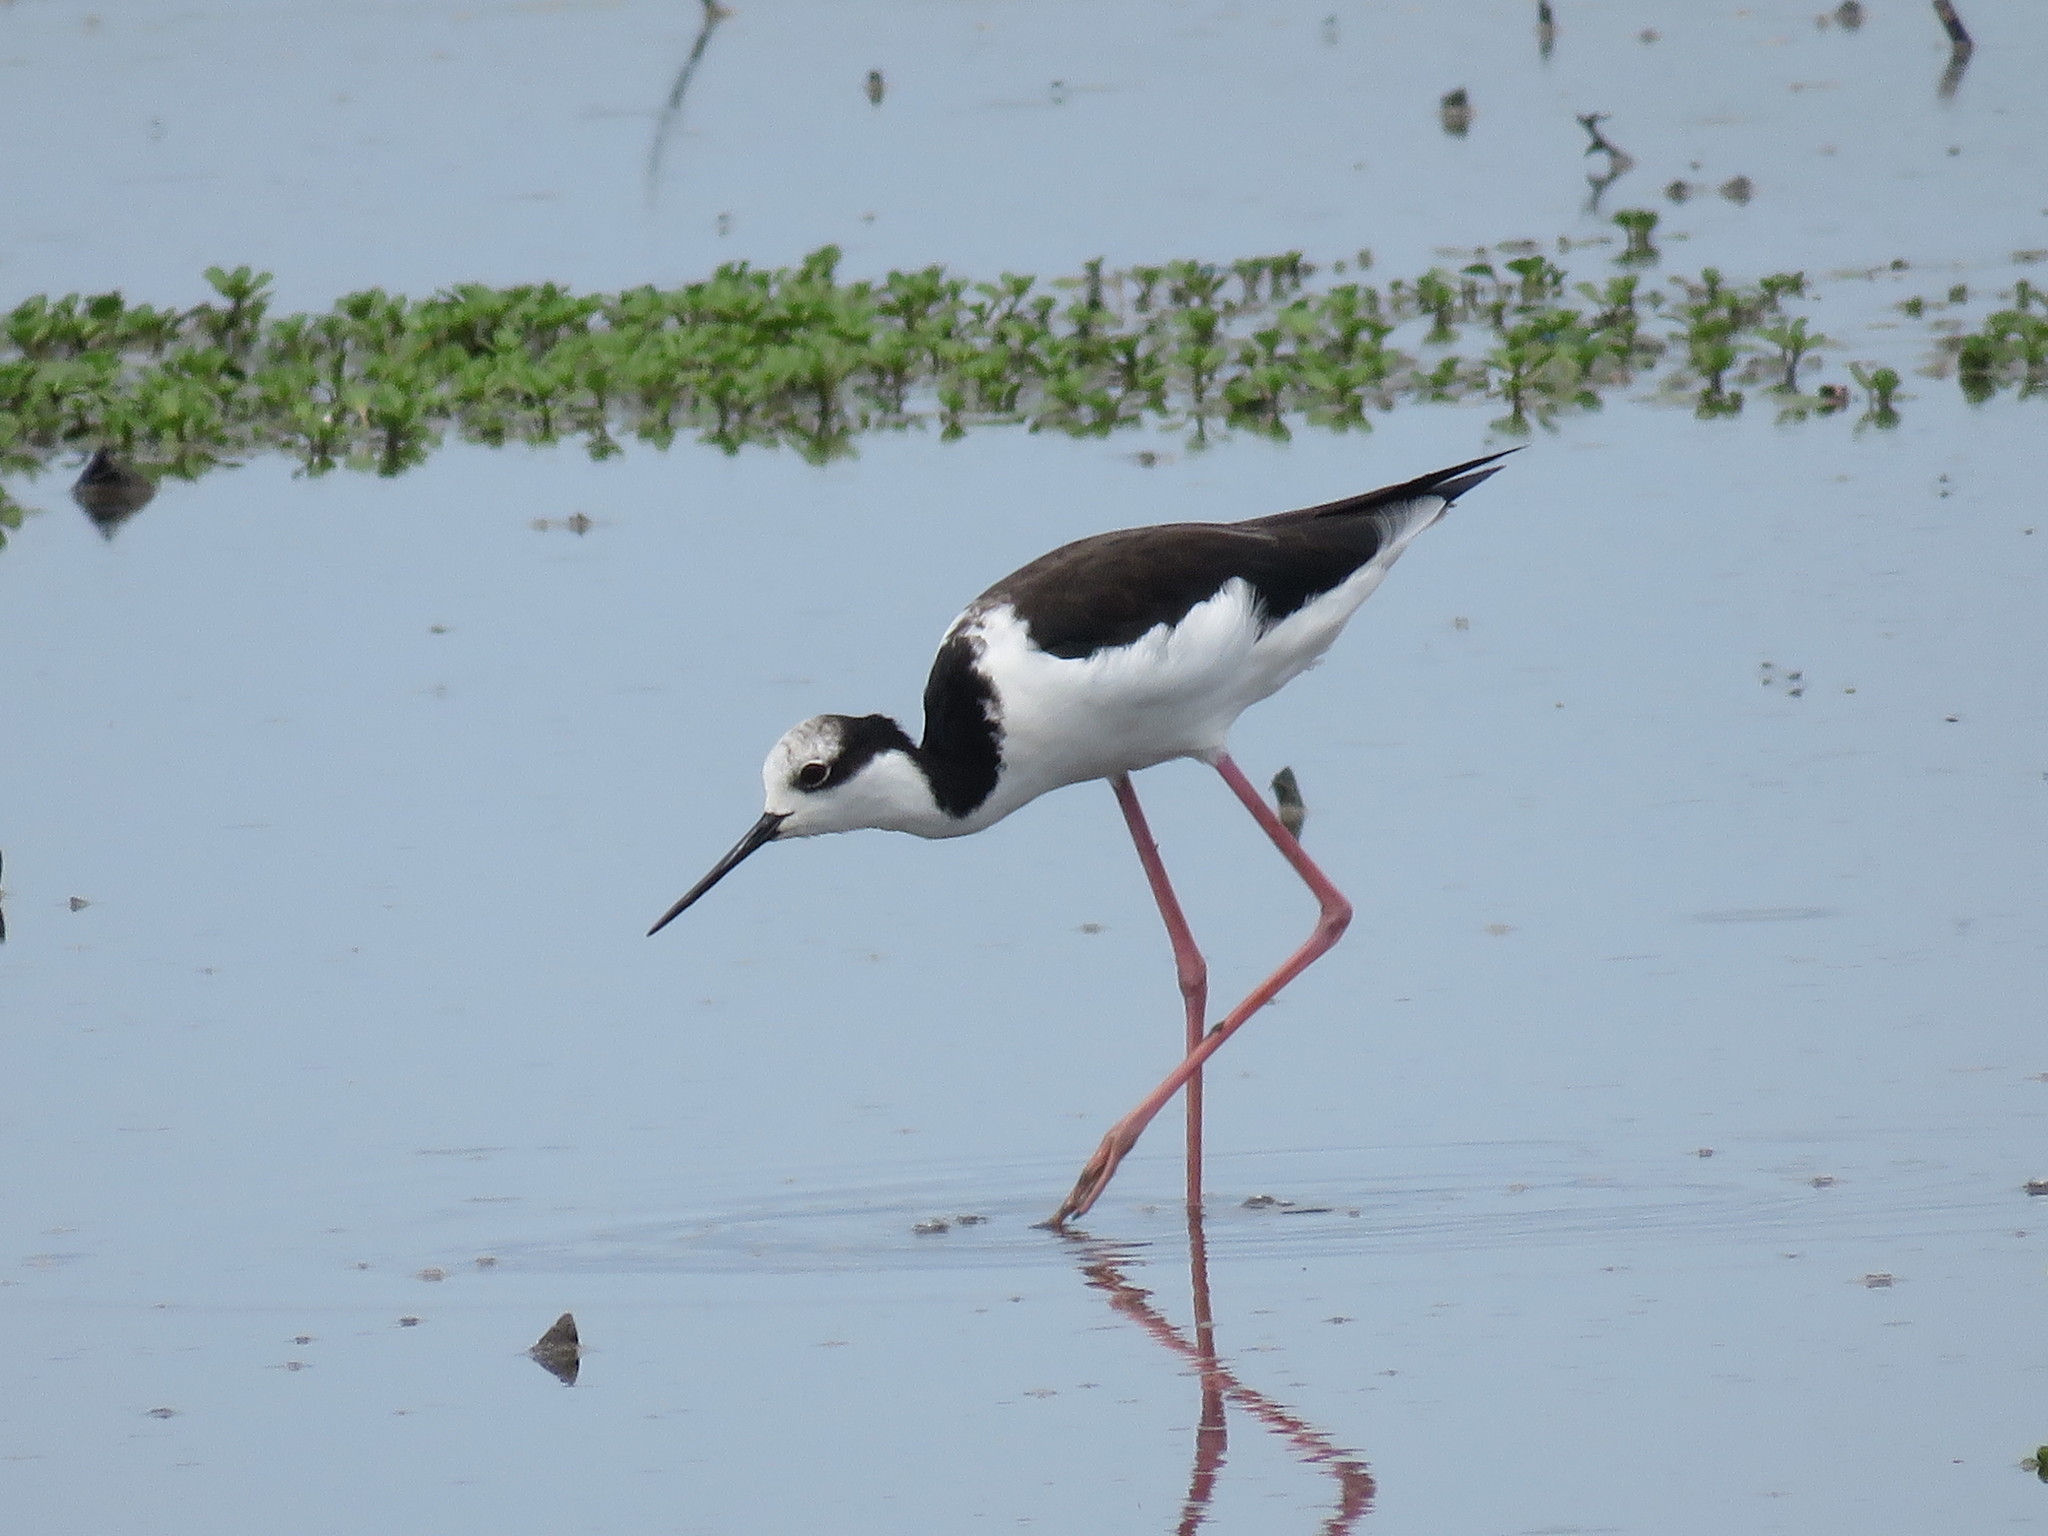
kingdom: Animalia
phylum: Chordata
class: Aves
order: Charadriiformes
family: Recurvirostridae
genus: Himantopus
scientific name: Himantopus mexicanus
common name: Black-necked stilt
